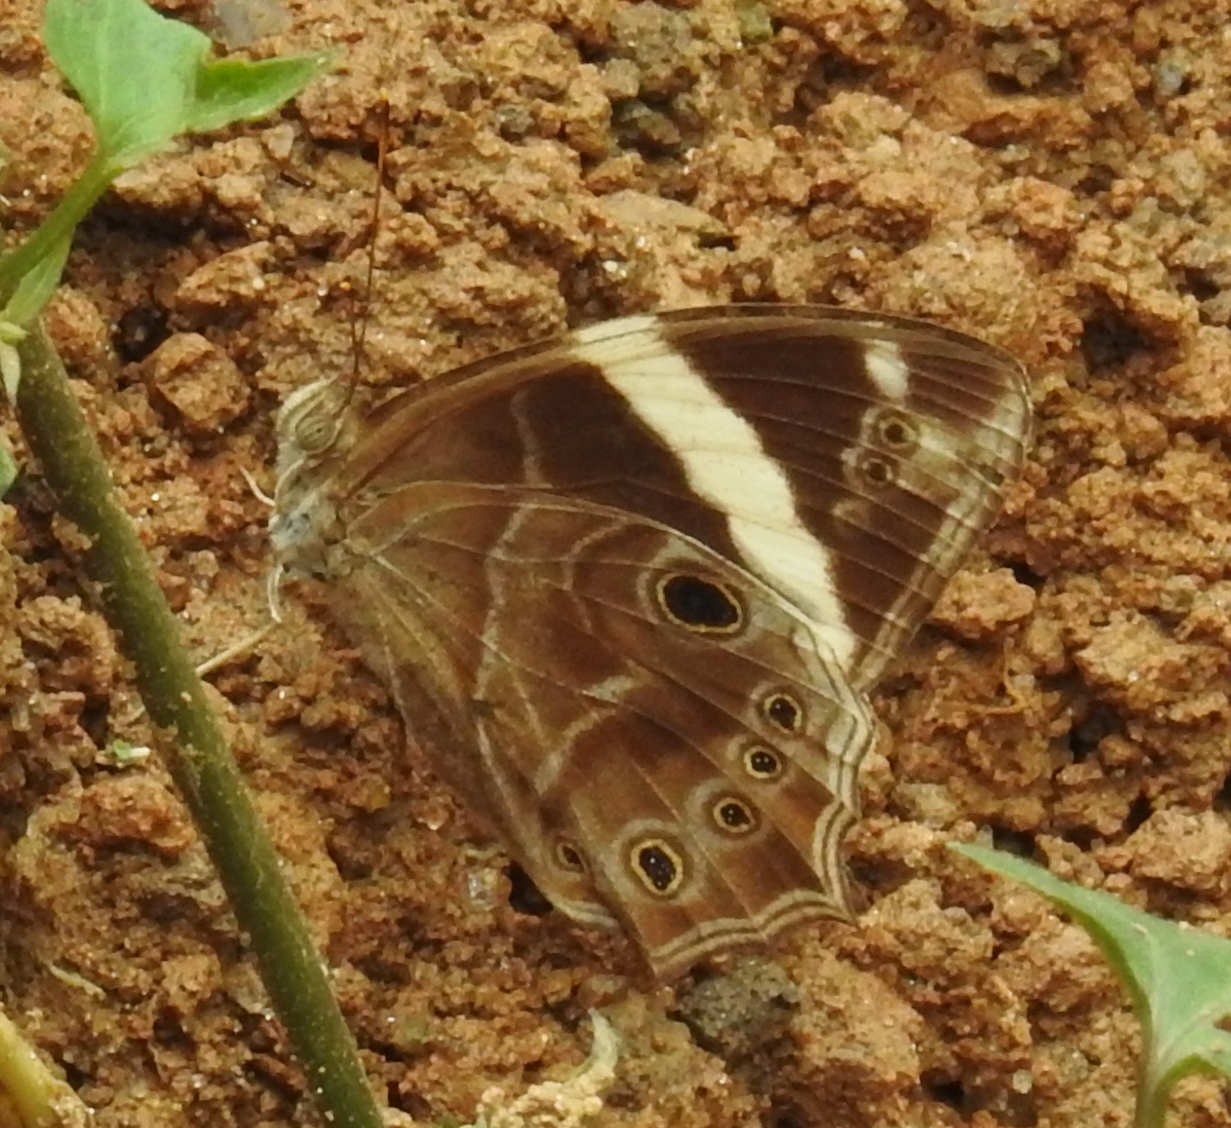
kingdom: Animalia
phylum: Arthropoda
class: Insecta
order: Lepidoptera
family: Nymphalidae
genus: Lethe
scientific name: Lethe confusa
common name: Banded treebrown
